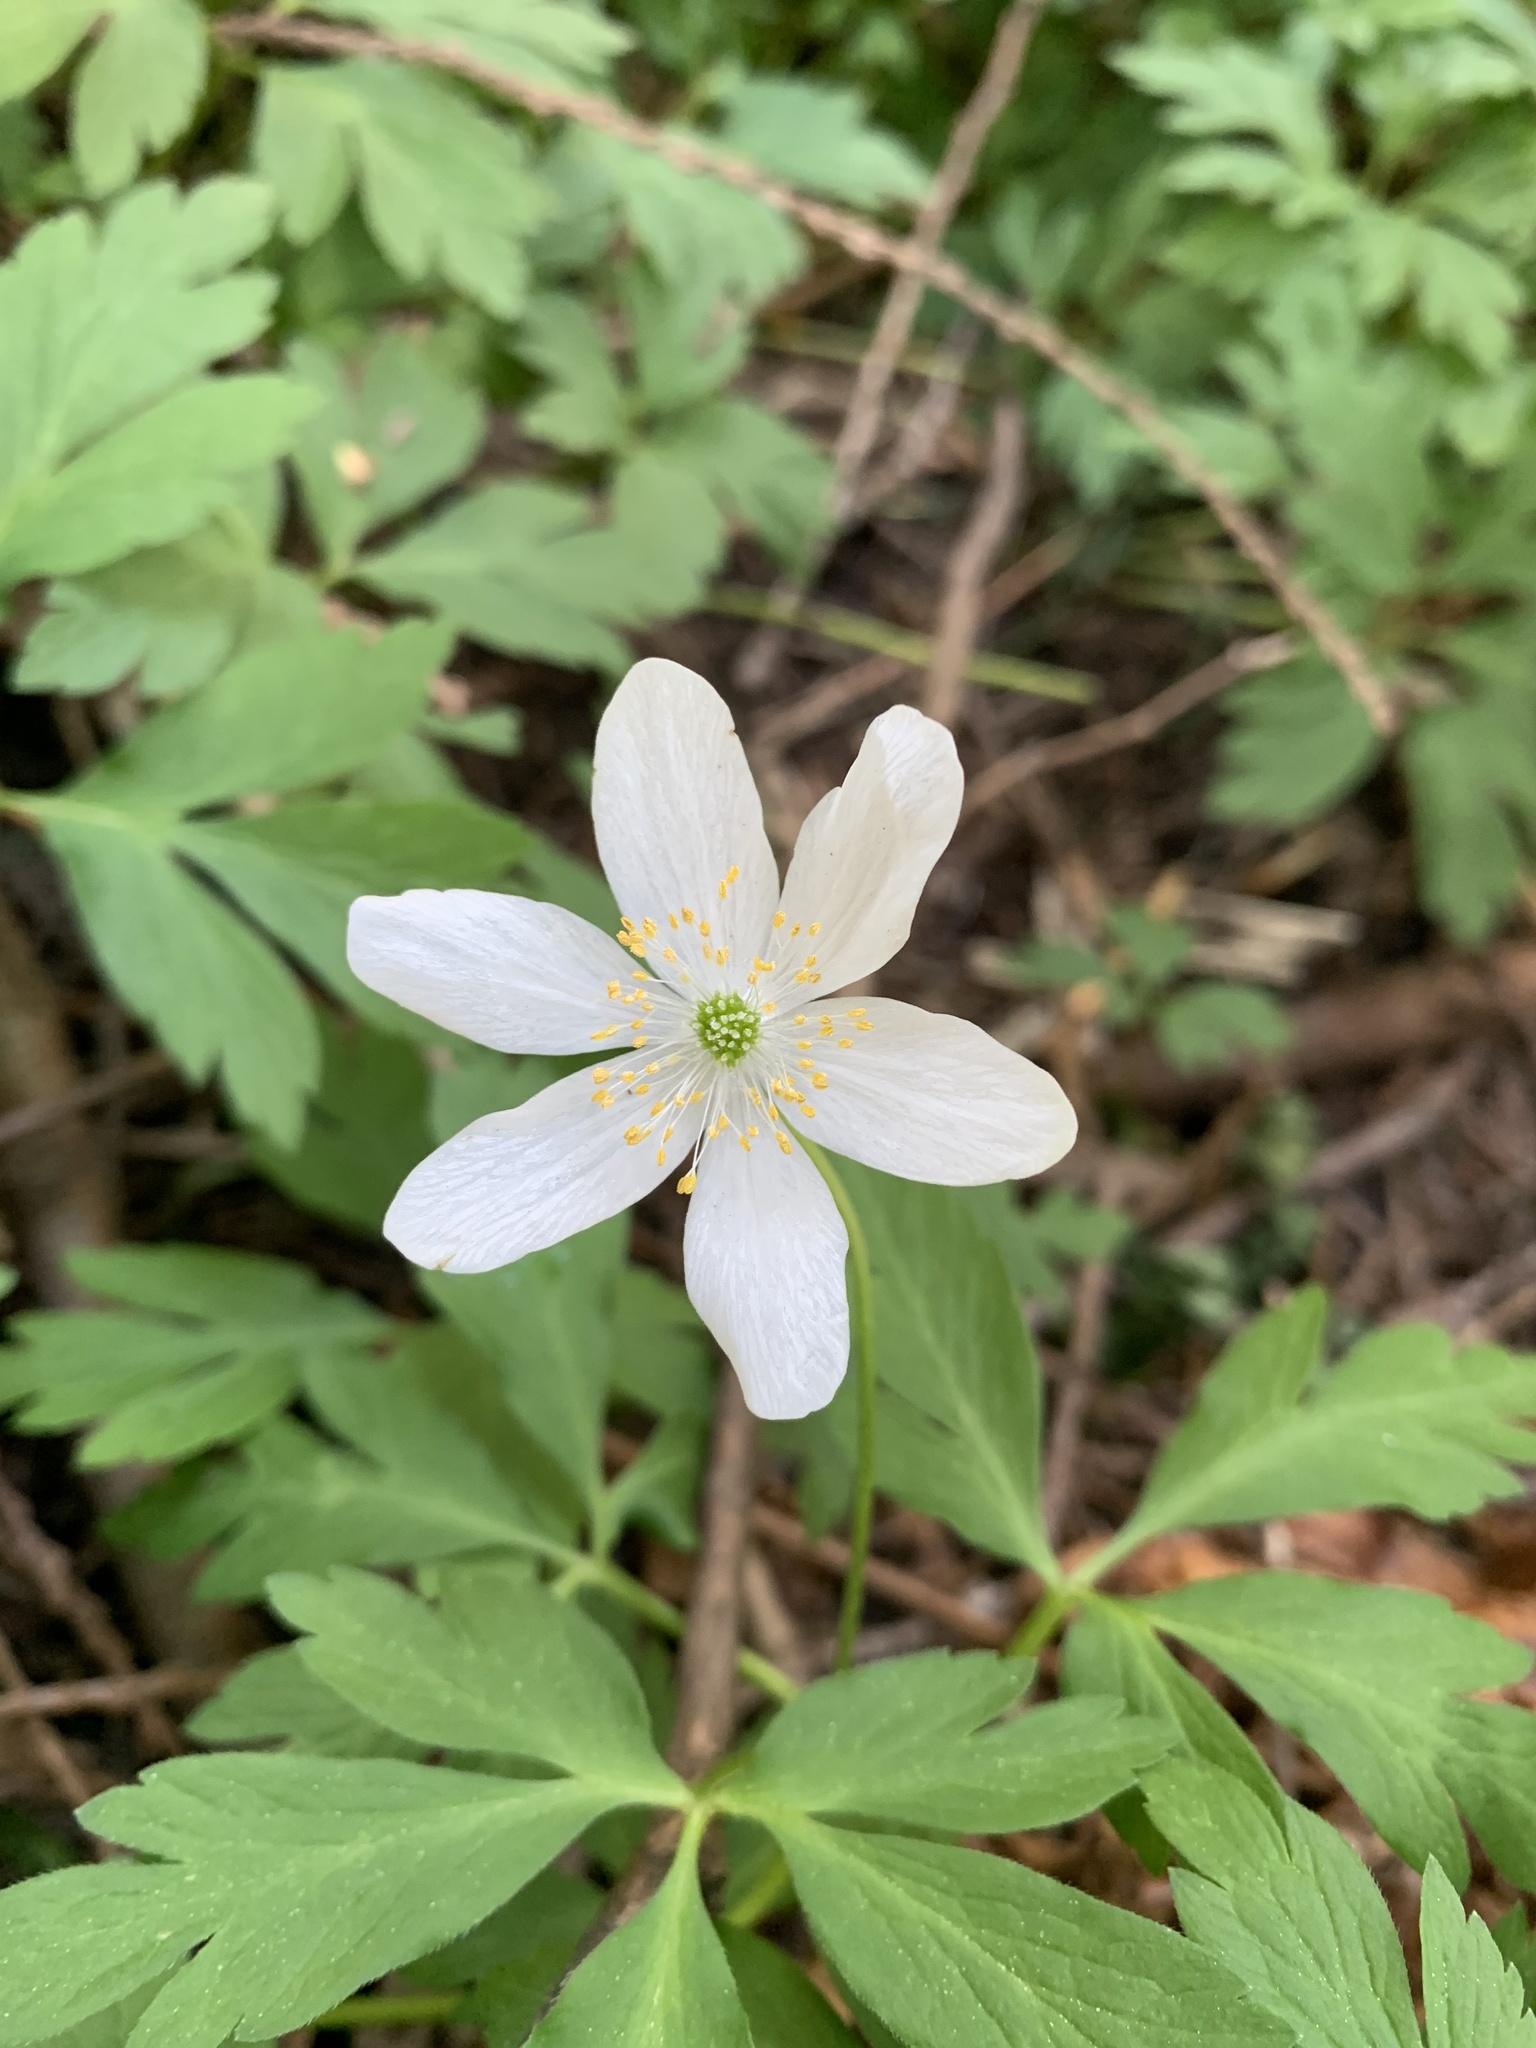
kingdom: Plantae
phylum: Tracheophyta
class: Magnoliopsida
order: Ranunculales
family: Ranunculaceae
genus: Anemone
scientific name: Anemone nemorosa
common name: Wood anemone
